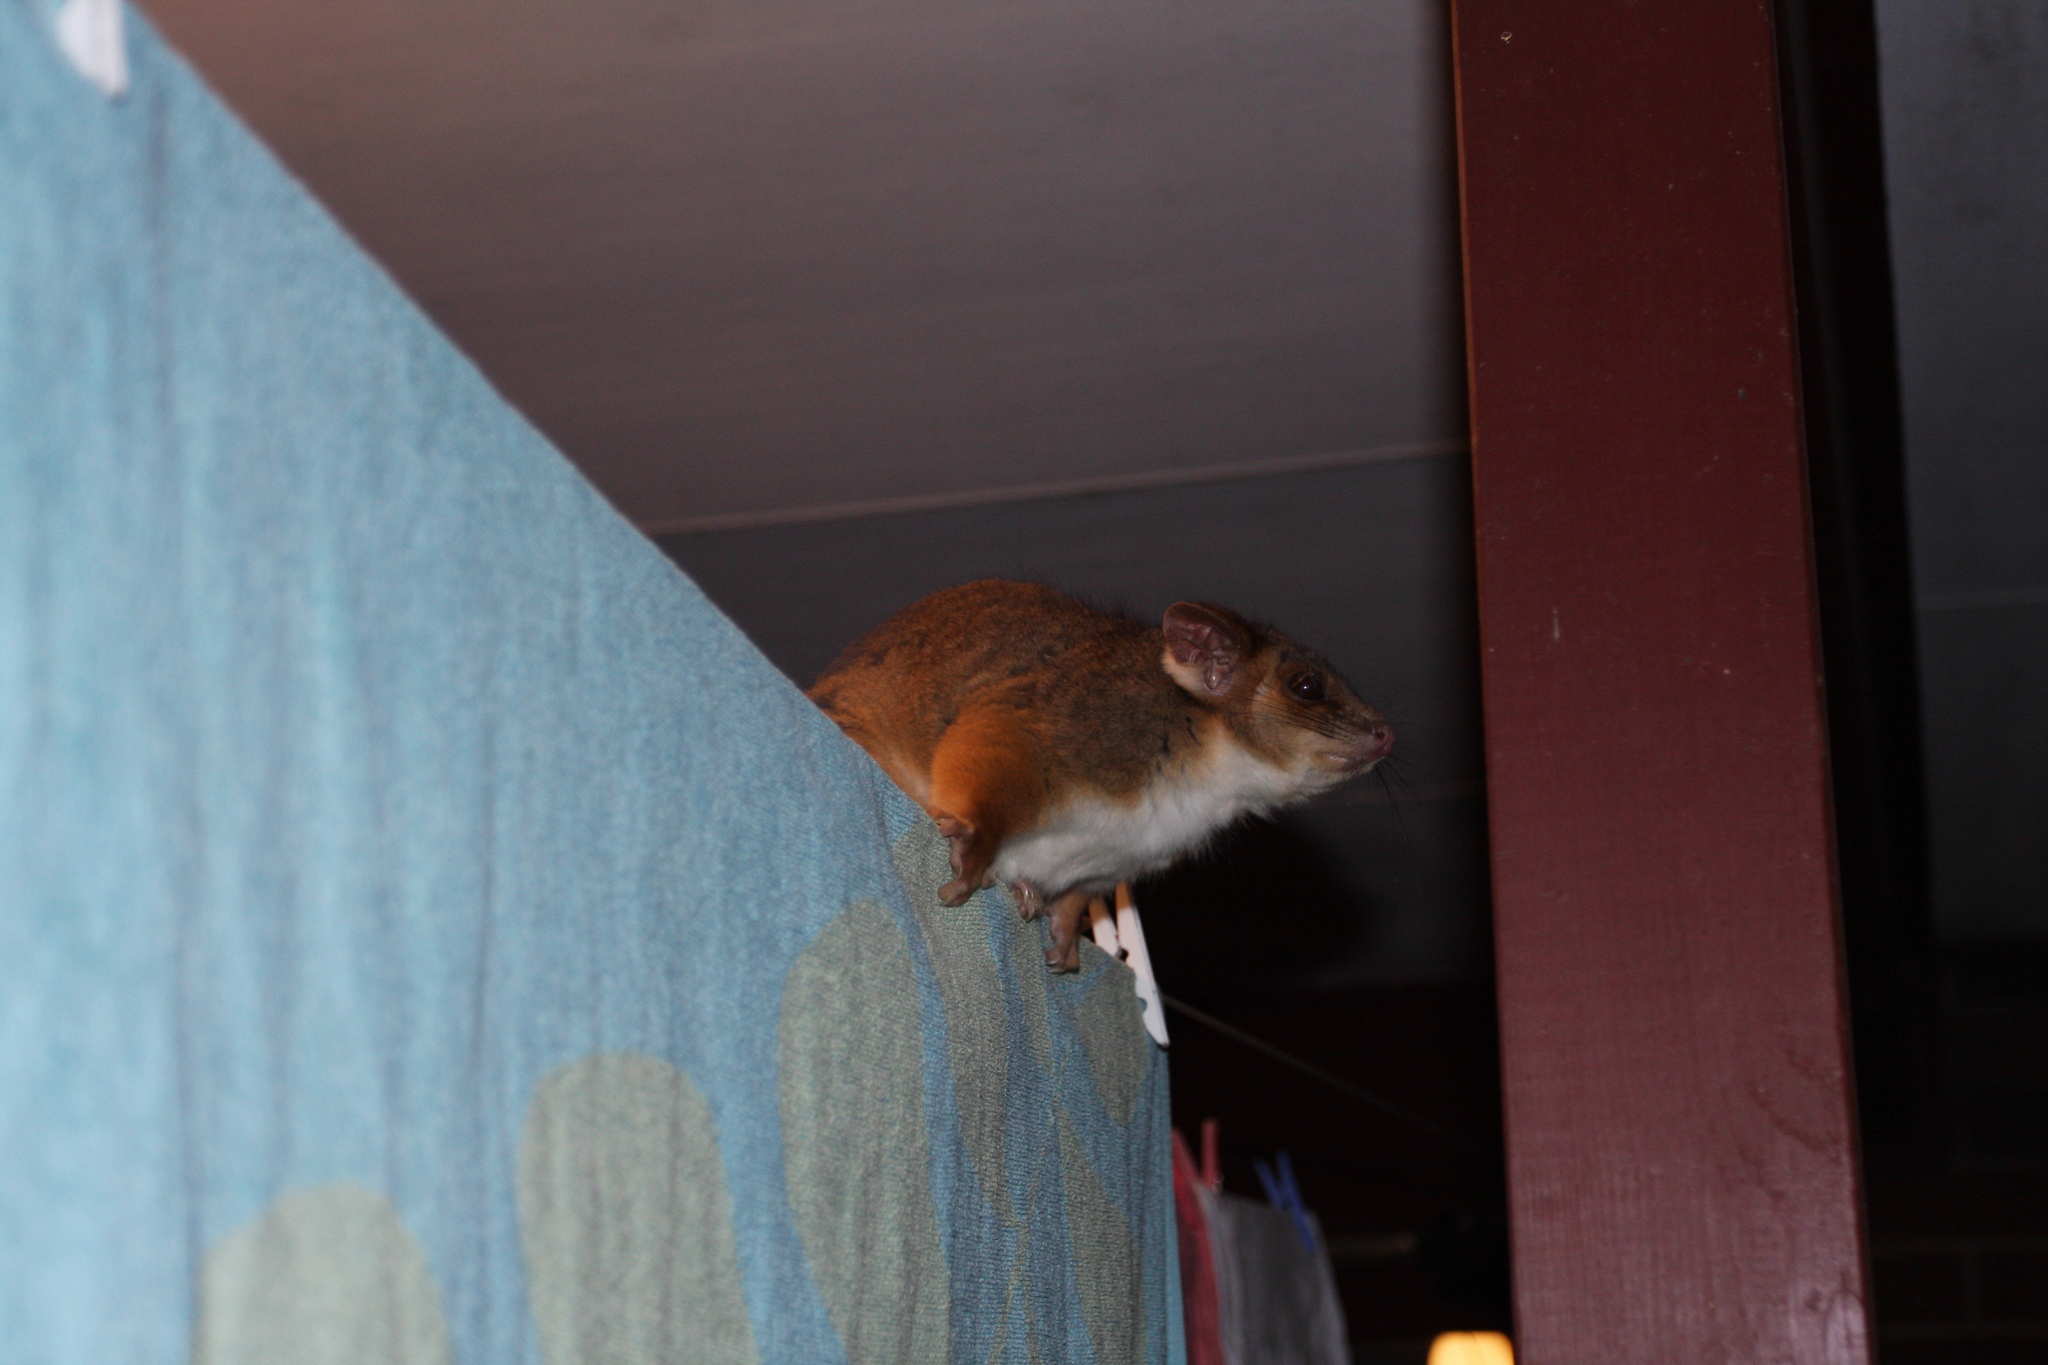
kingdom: Animalia
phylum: Chordata
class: Mammalia
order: Diprotodontia
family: Pseudocheiridae
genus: Pseudocheirus
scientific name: Pseudocheirus peregrinus
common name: Common ringtail possum
